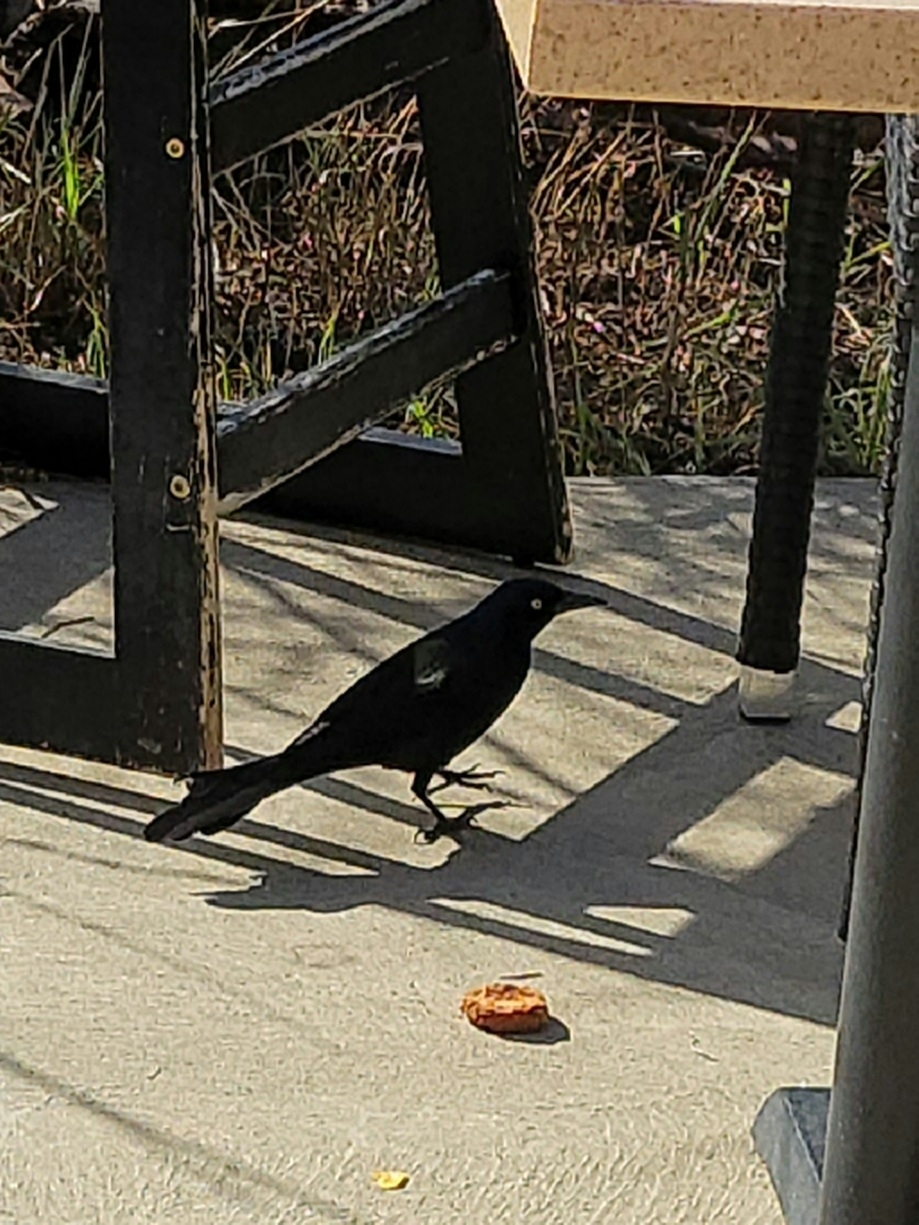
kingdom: Animalia
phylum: Chordata
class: Aves
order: Passeriformes
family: Icteridae
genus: Quiscalus
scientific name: Quiscalus quiscula
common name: Common grackle
